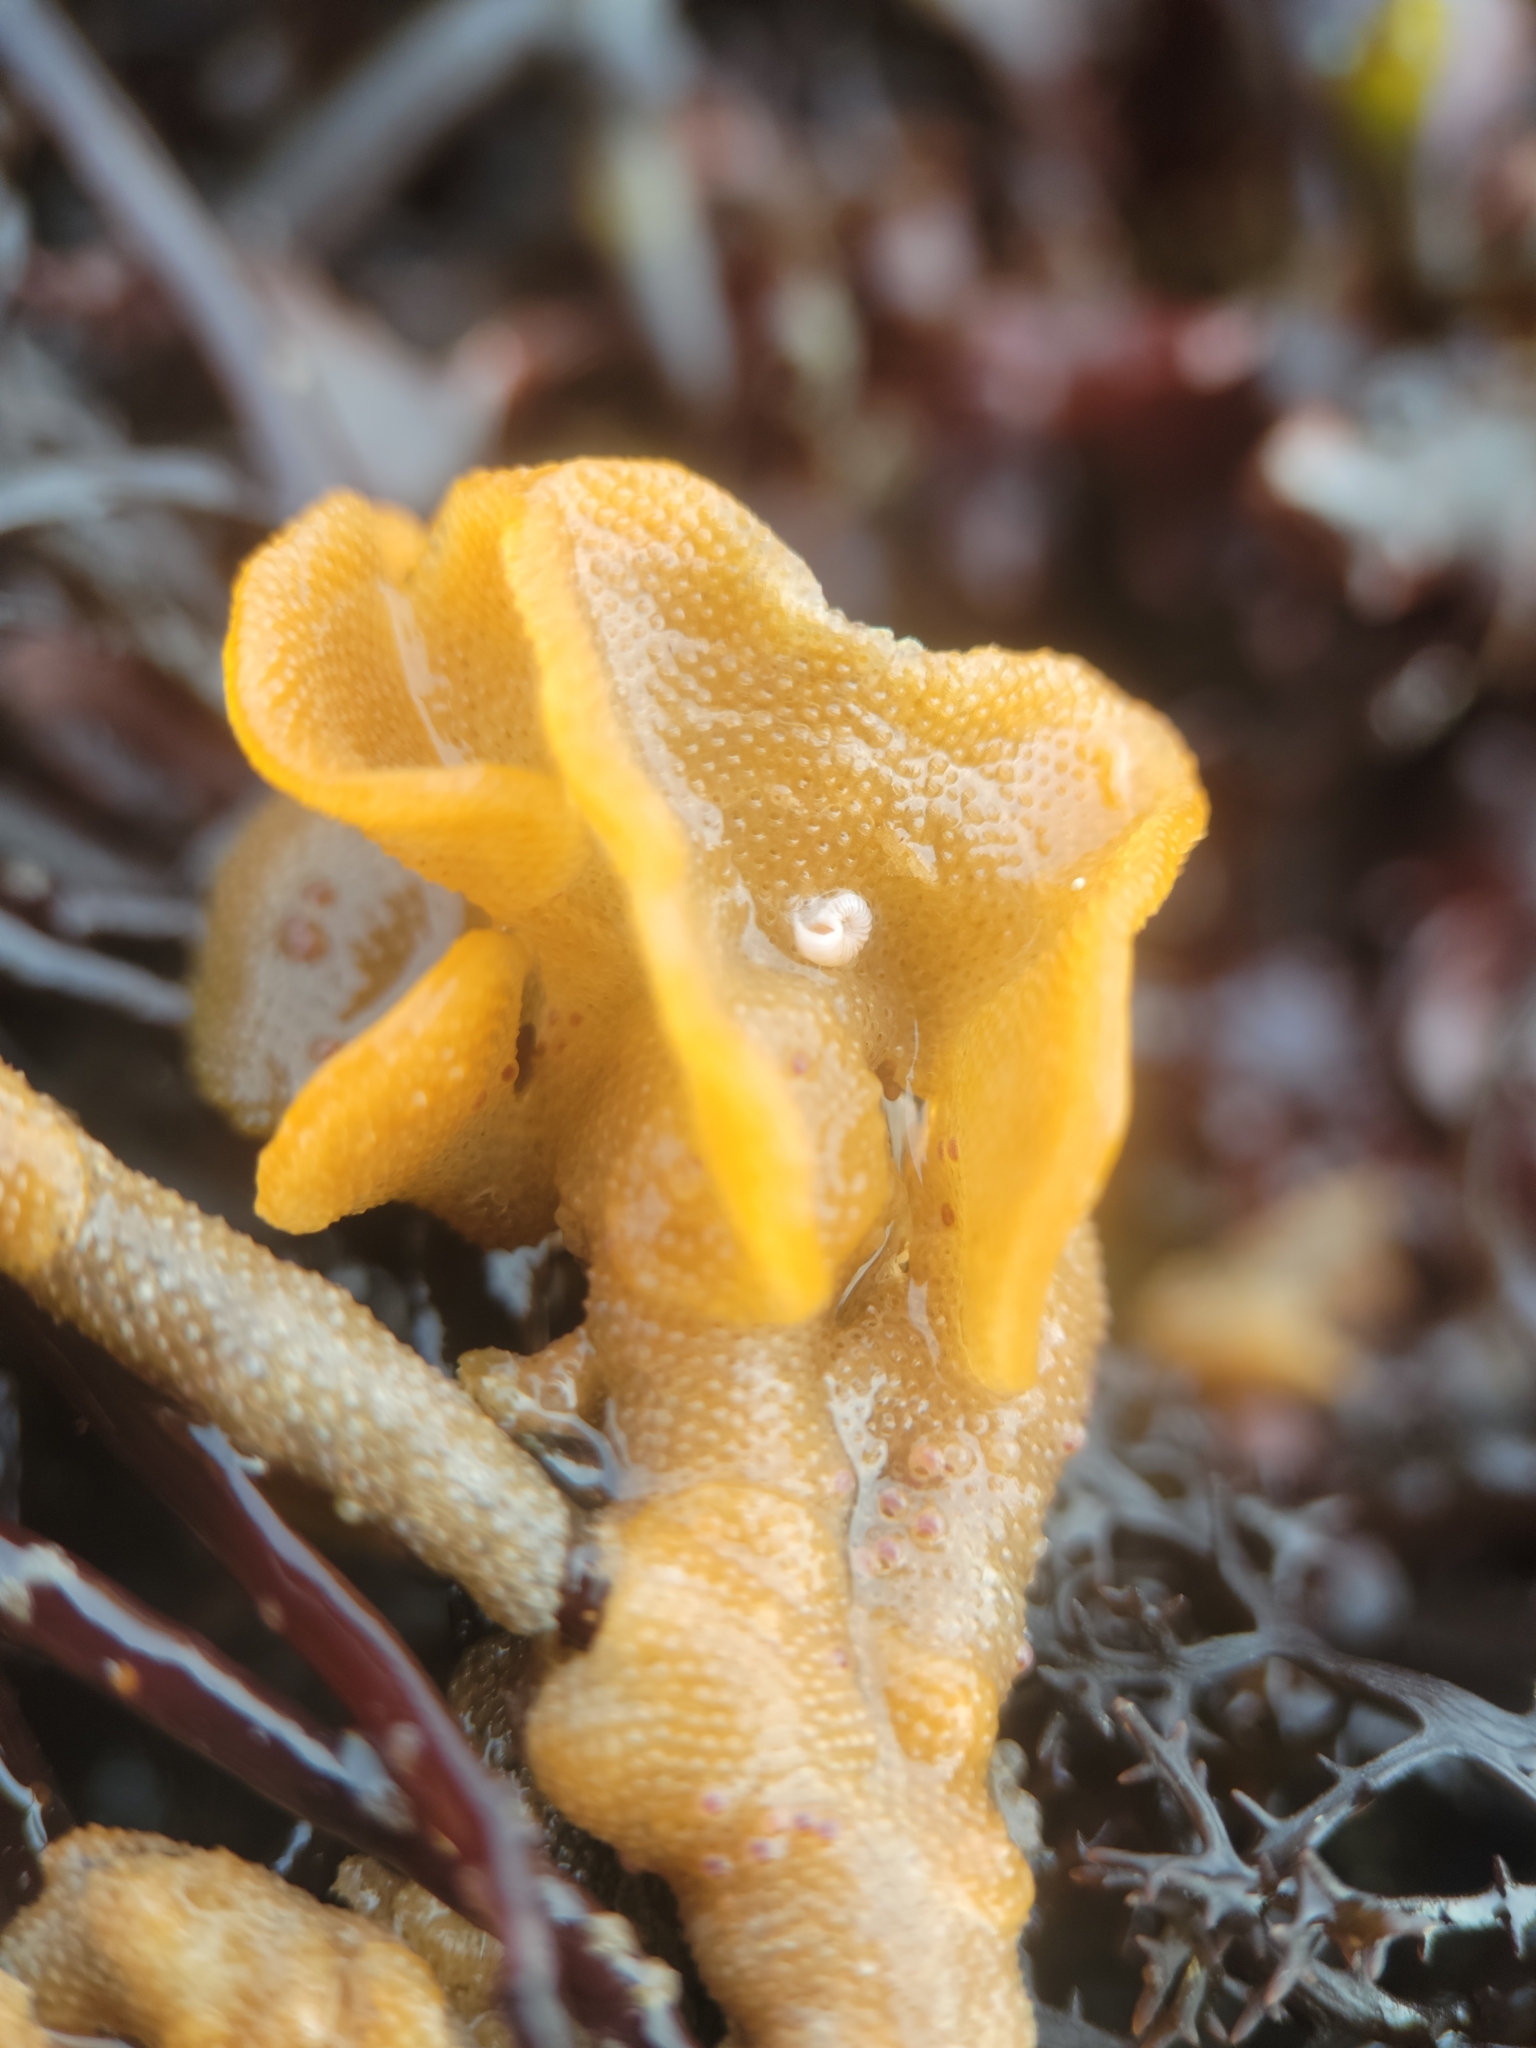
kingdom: Animalia
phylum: Bryozoa
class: Gymnolaemata
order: Cheilostomatida
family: Pacificincolidae
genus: Primavelans
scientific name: Primavelans insculpta
